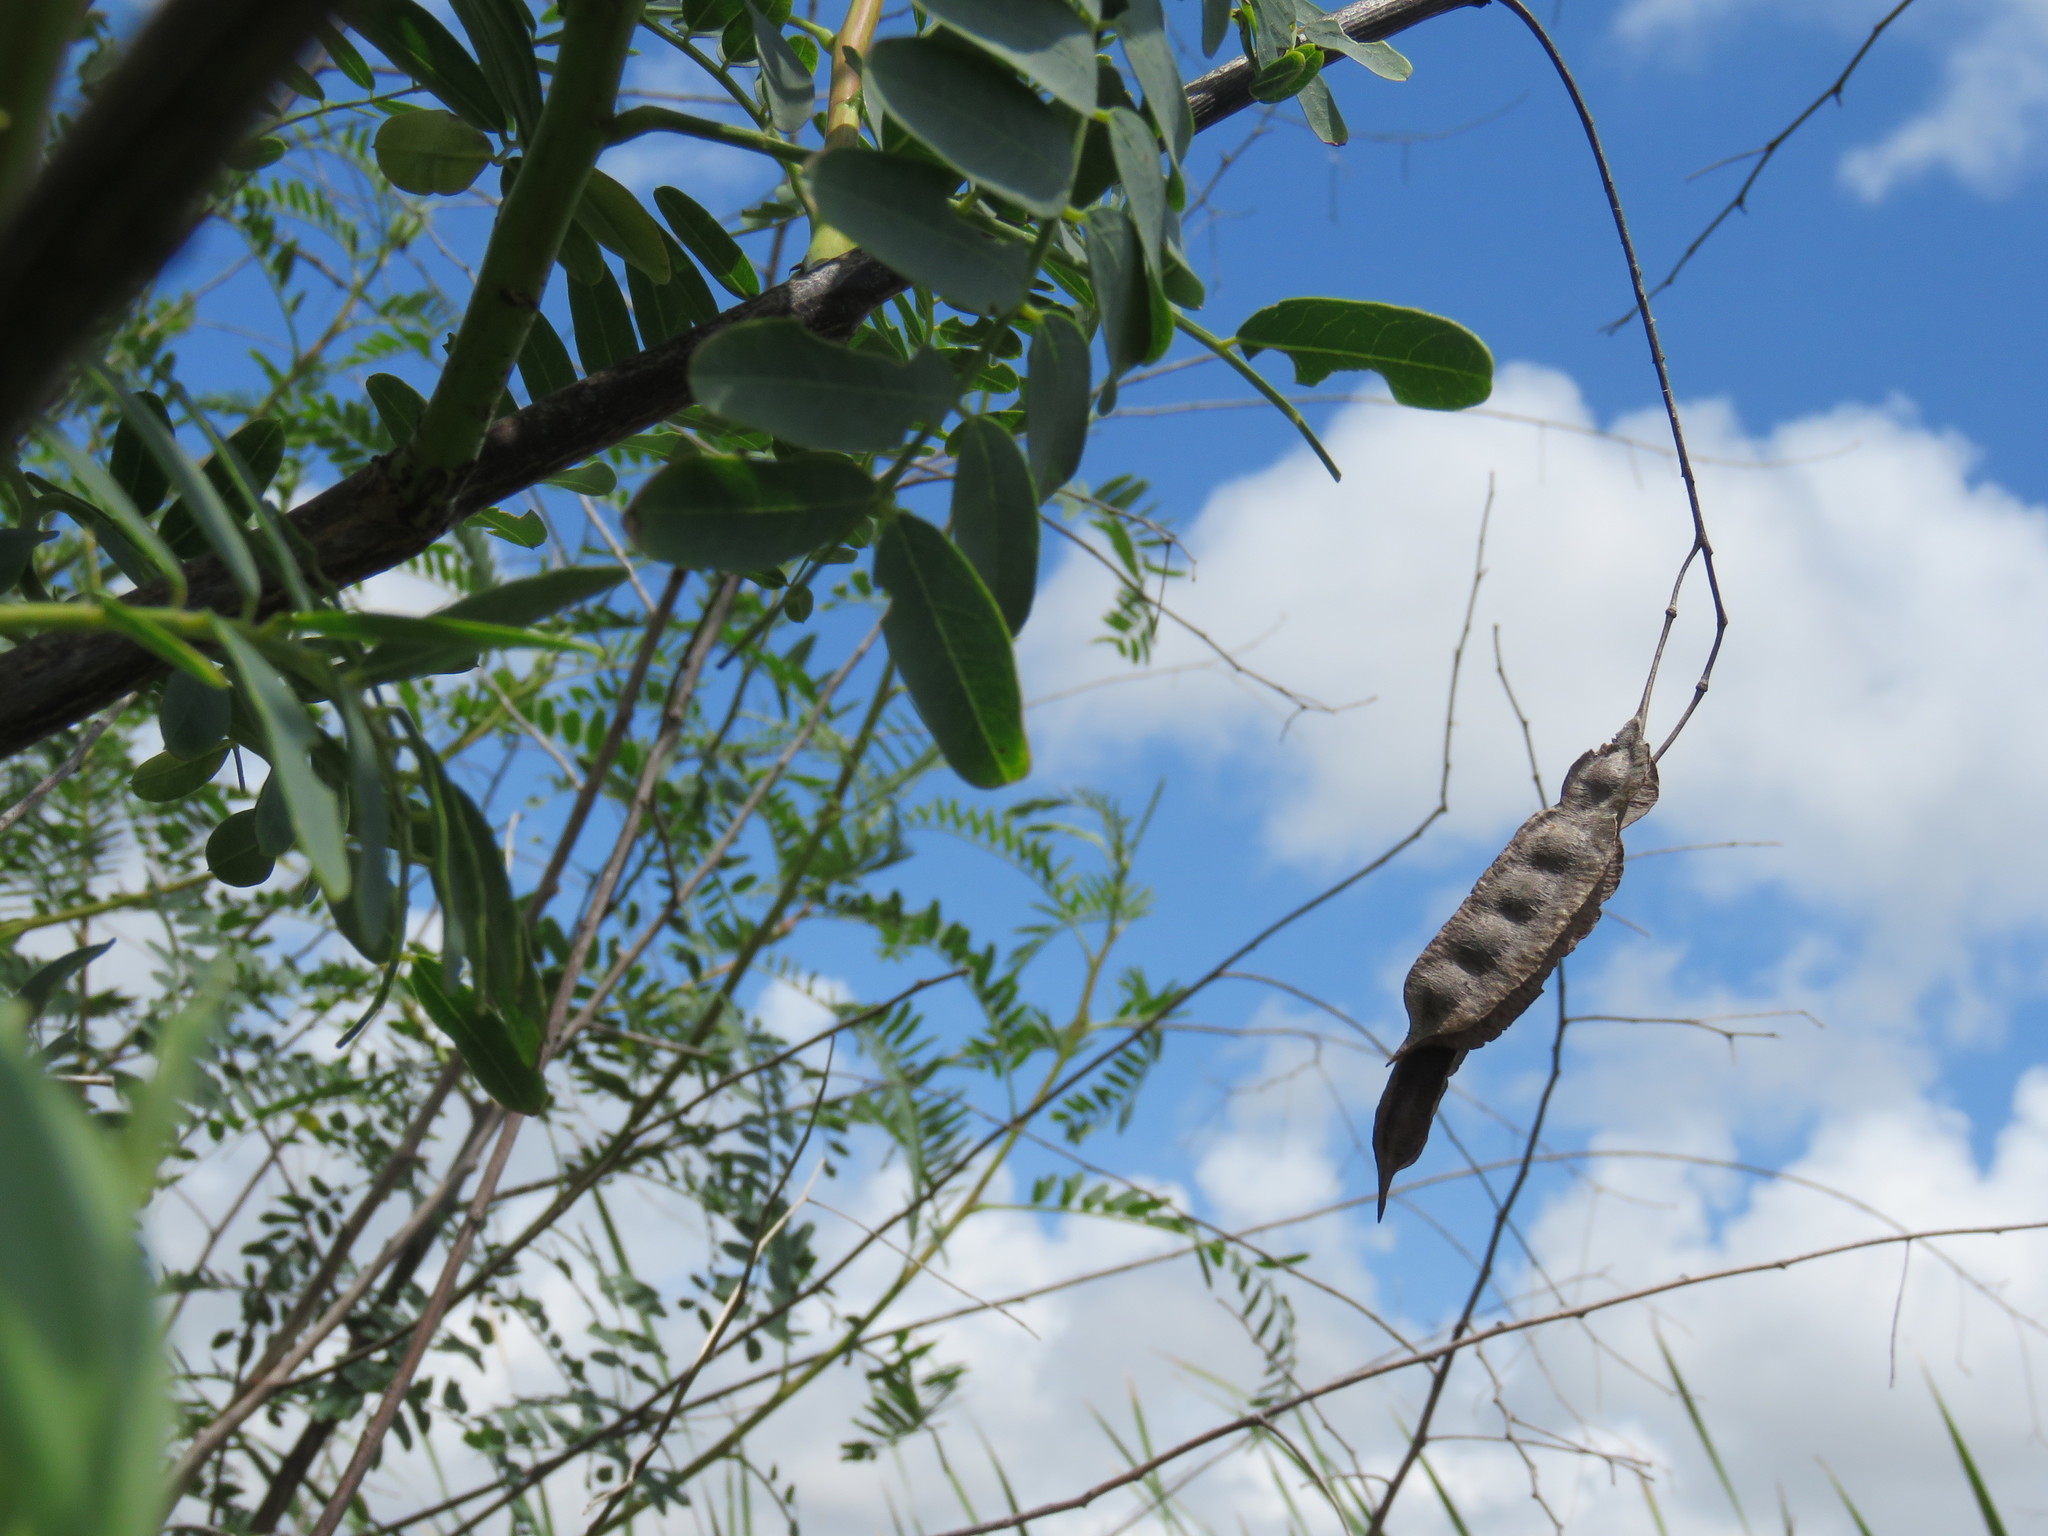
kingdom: Plantae
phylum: Tracheophyta
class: Magnoliopsida
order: Fabales
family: Fabaceae
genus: Sesbania
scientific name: Sesbania drummondii
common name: Poison-bean
